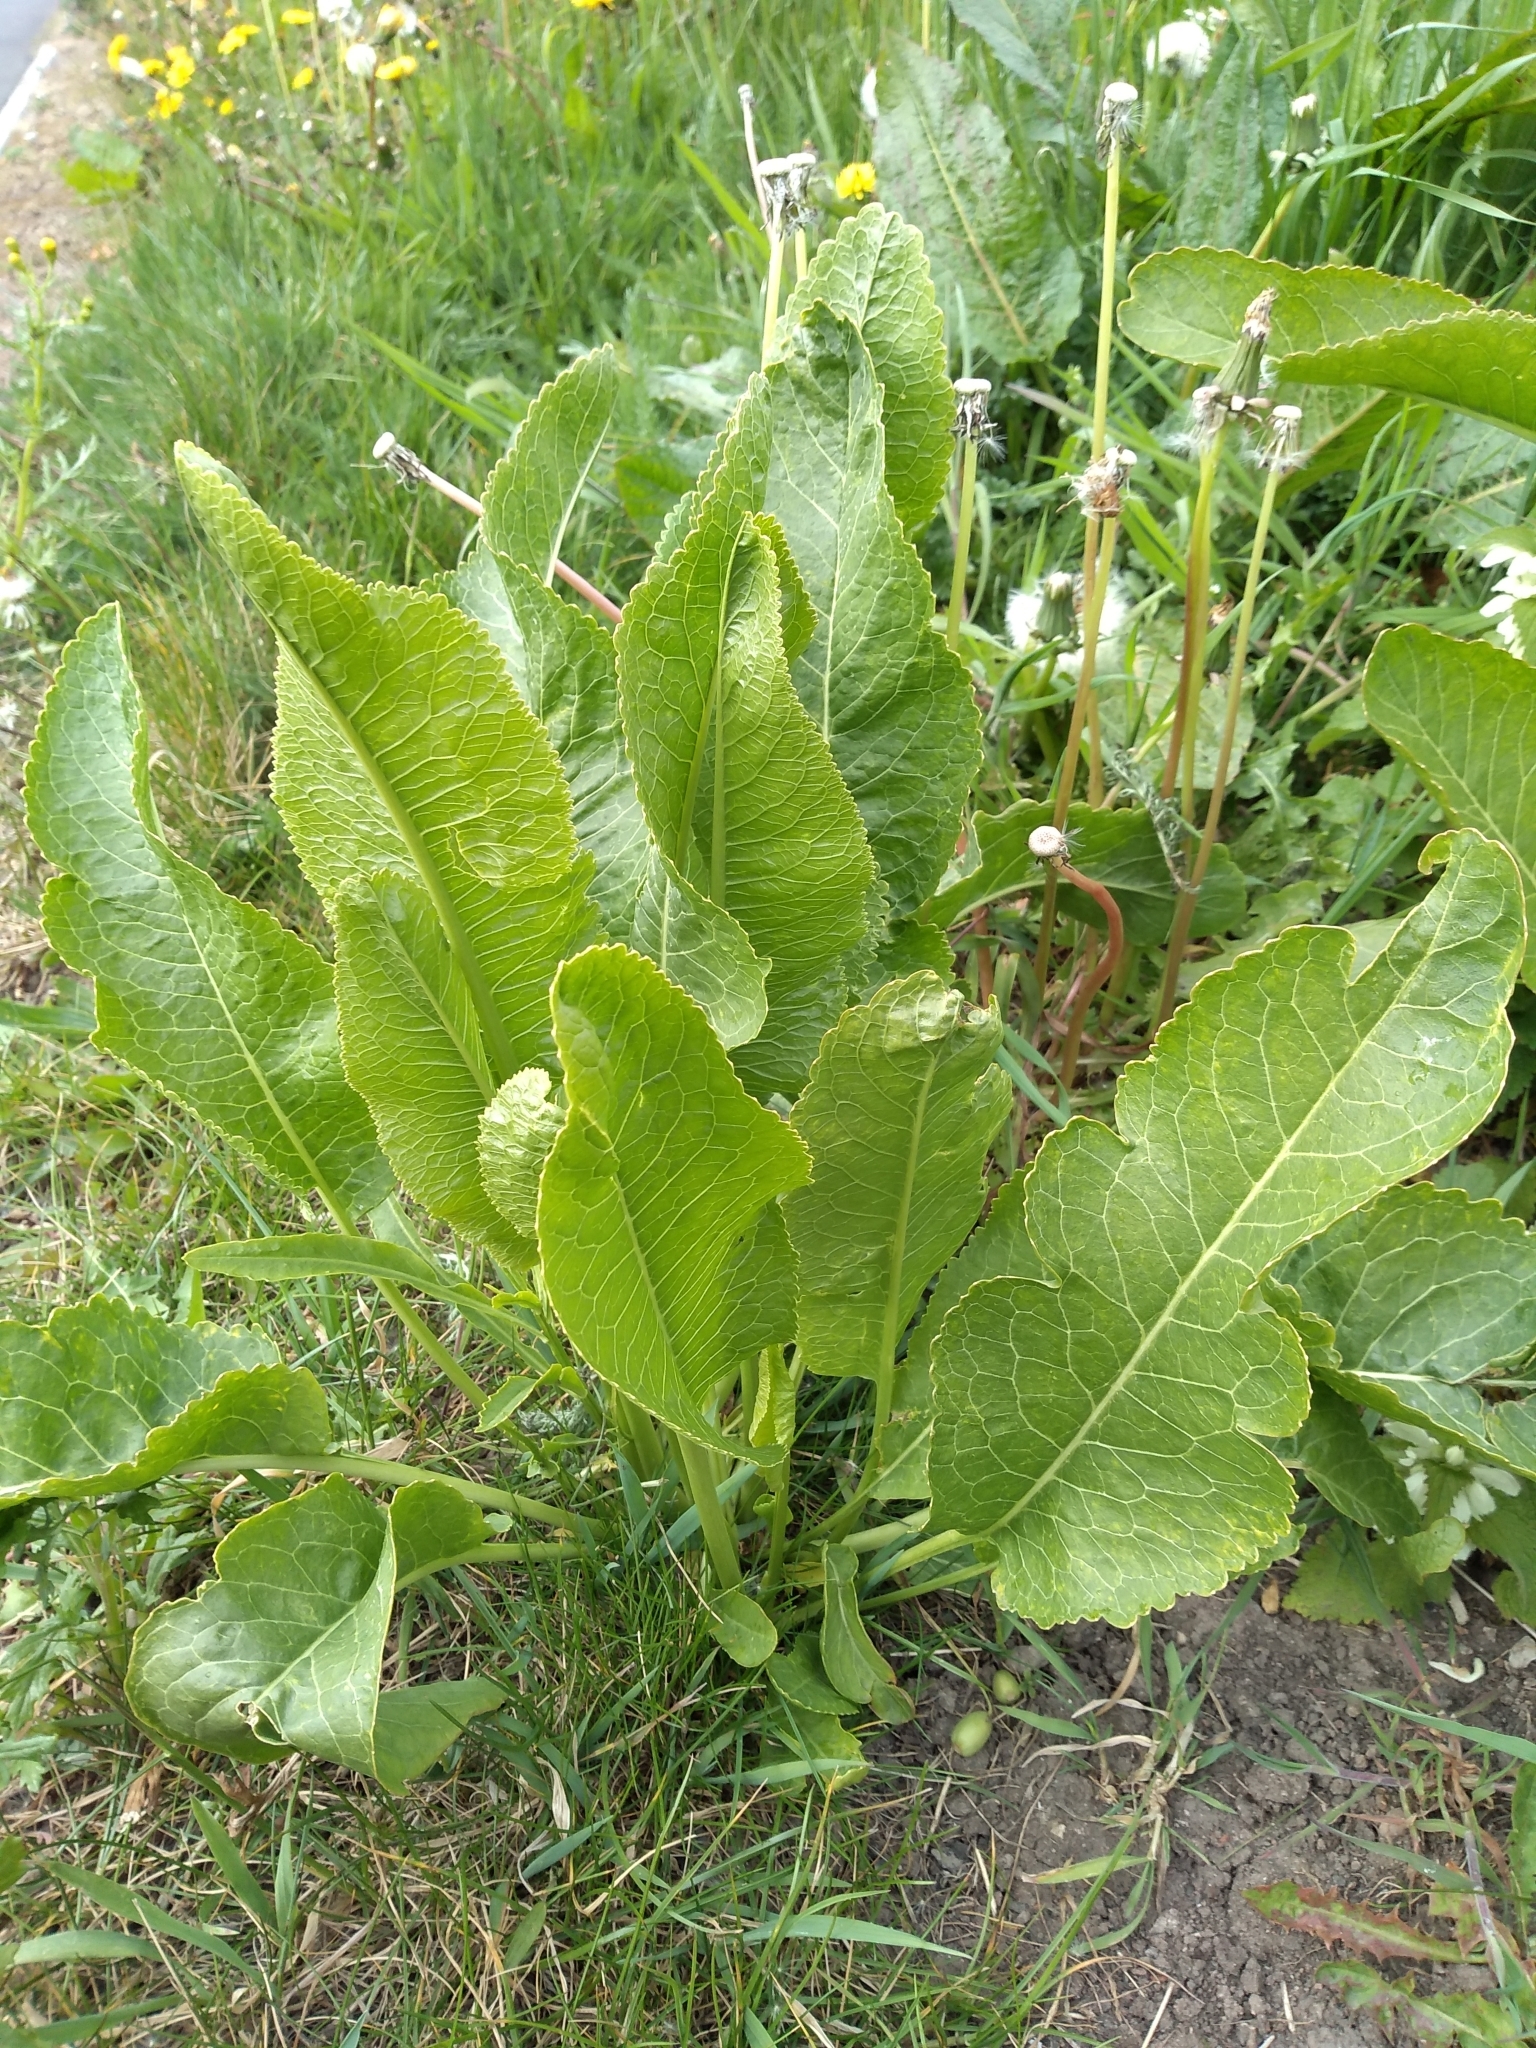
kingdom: Plantae
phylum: Tracheophyta
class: Magnoliopsida
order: Brassicales
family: Brassicaceae
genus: Armoracia
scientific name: Armoracia rusticana
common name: Horseradish
